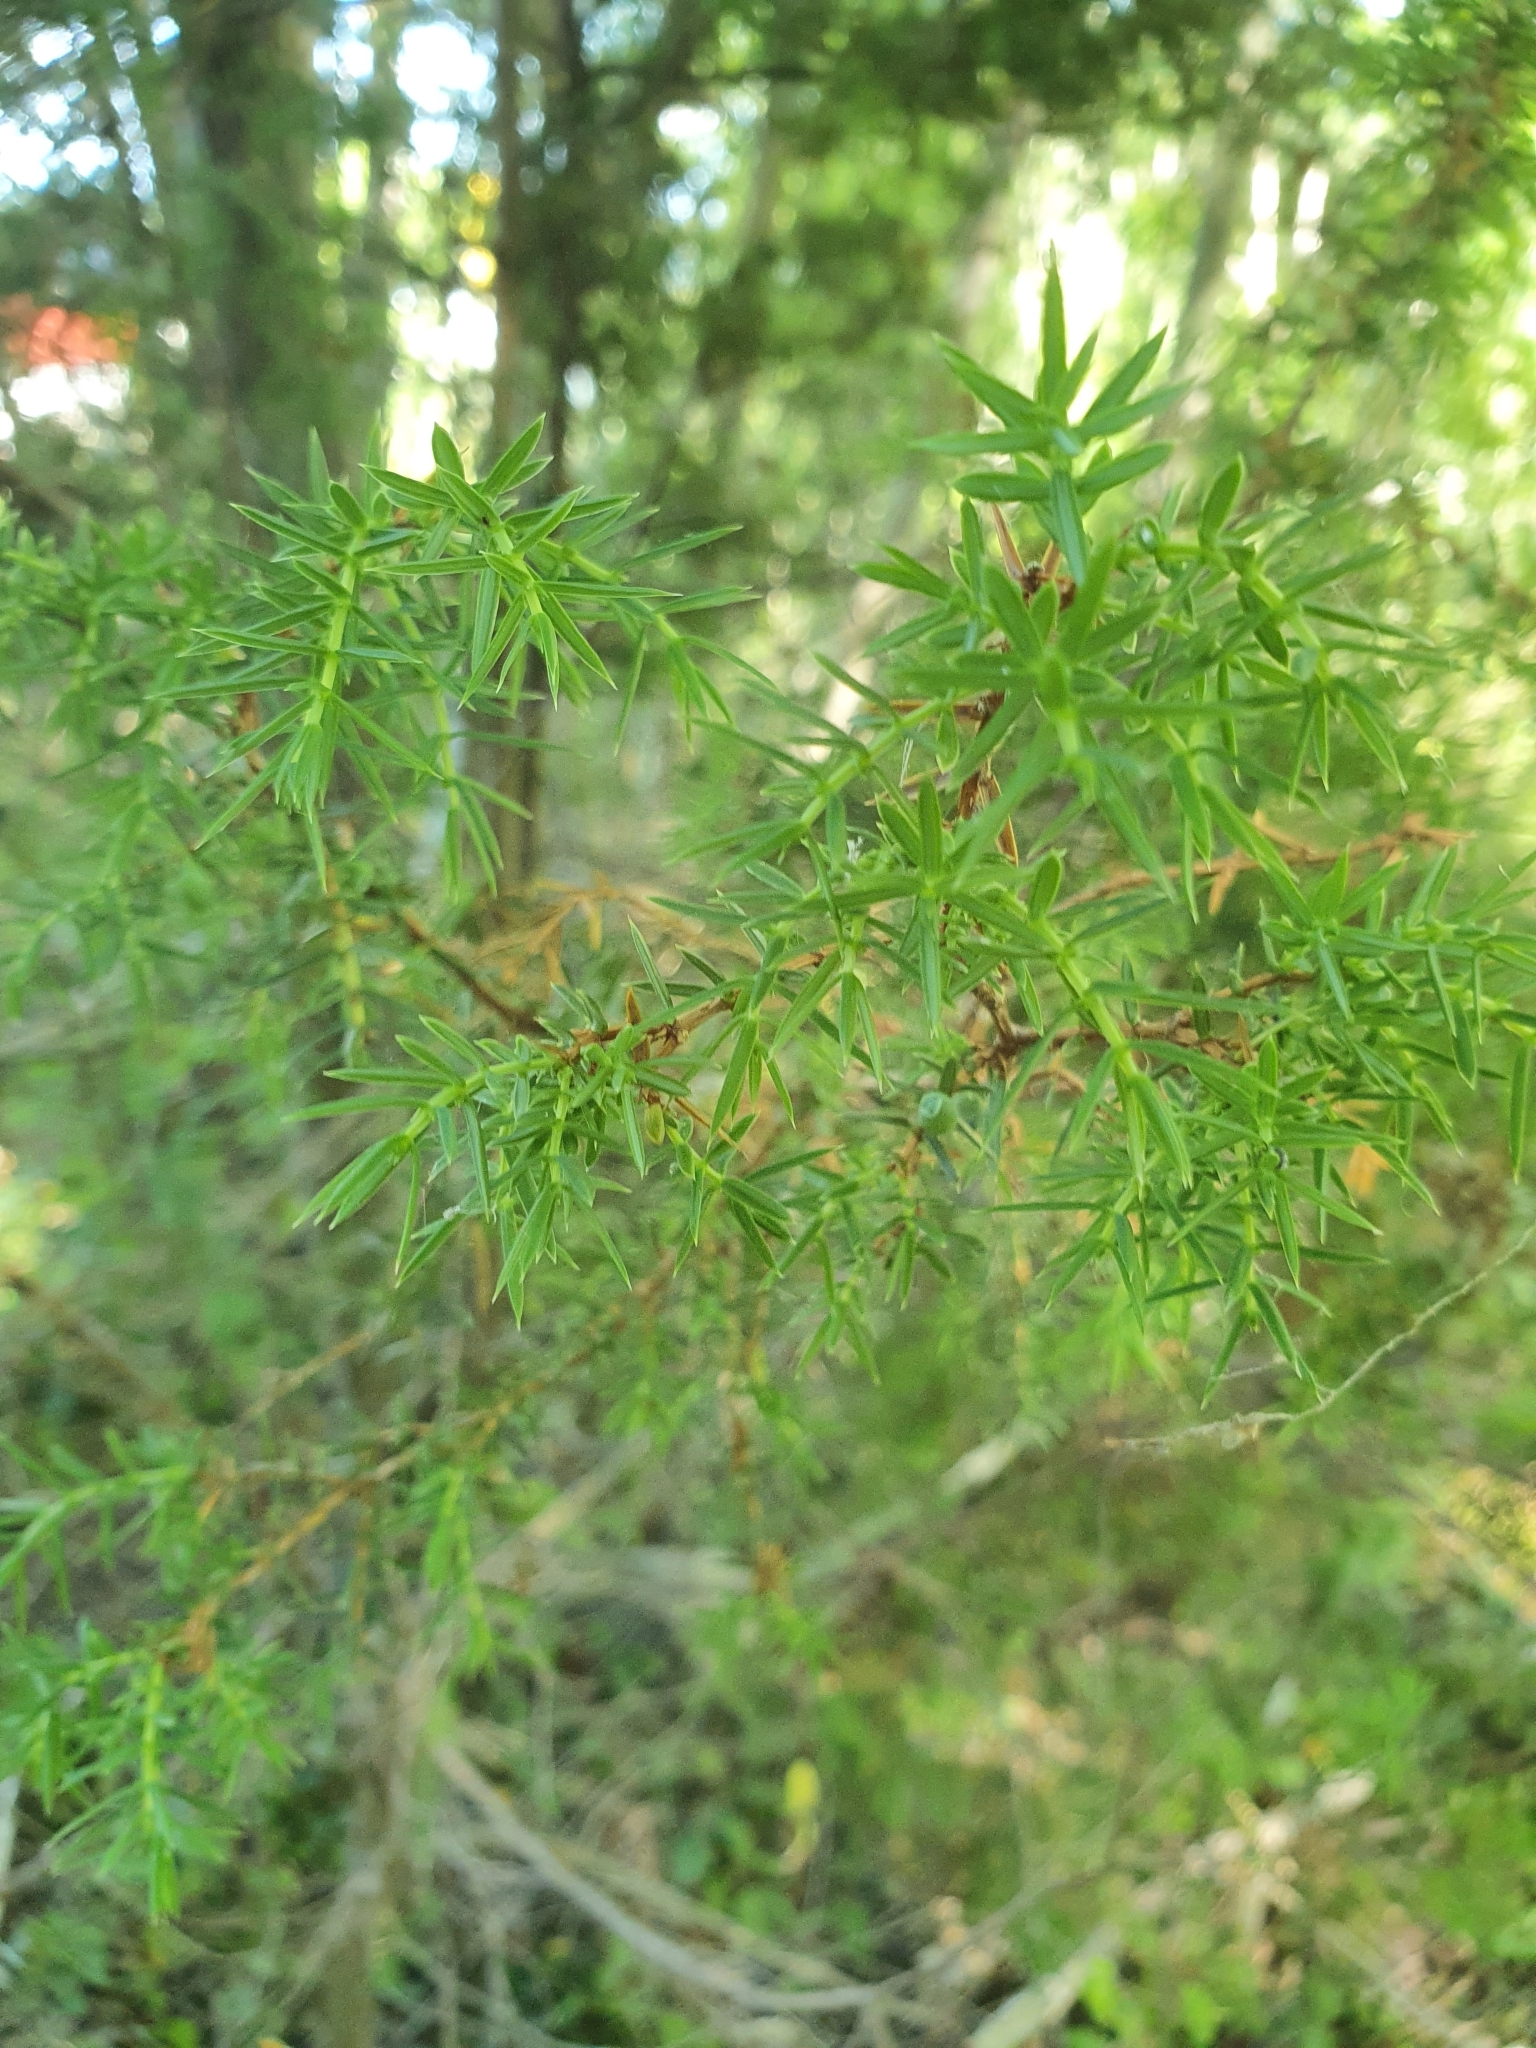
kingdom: Plantae
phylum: Tracheophyta
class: Pinopsida
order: Pinales
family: Cupressaceae
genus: Juniperus
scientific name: Juniperus communis
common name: Common juniper
